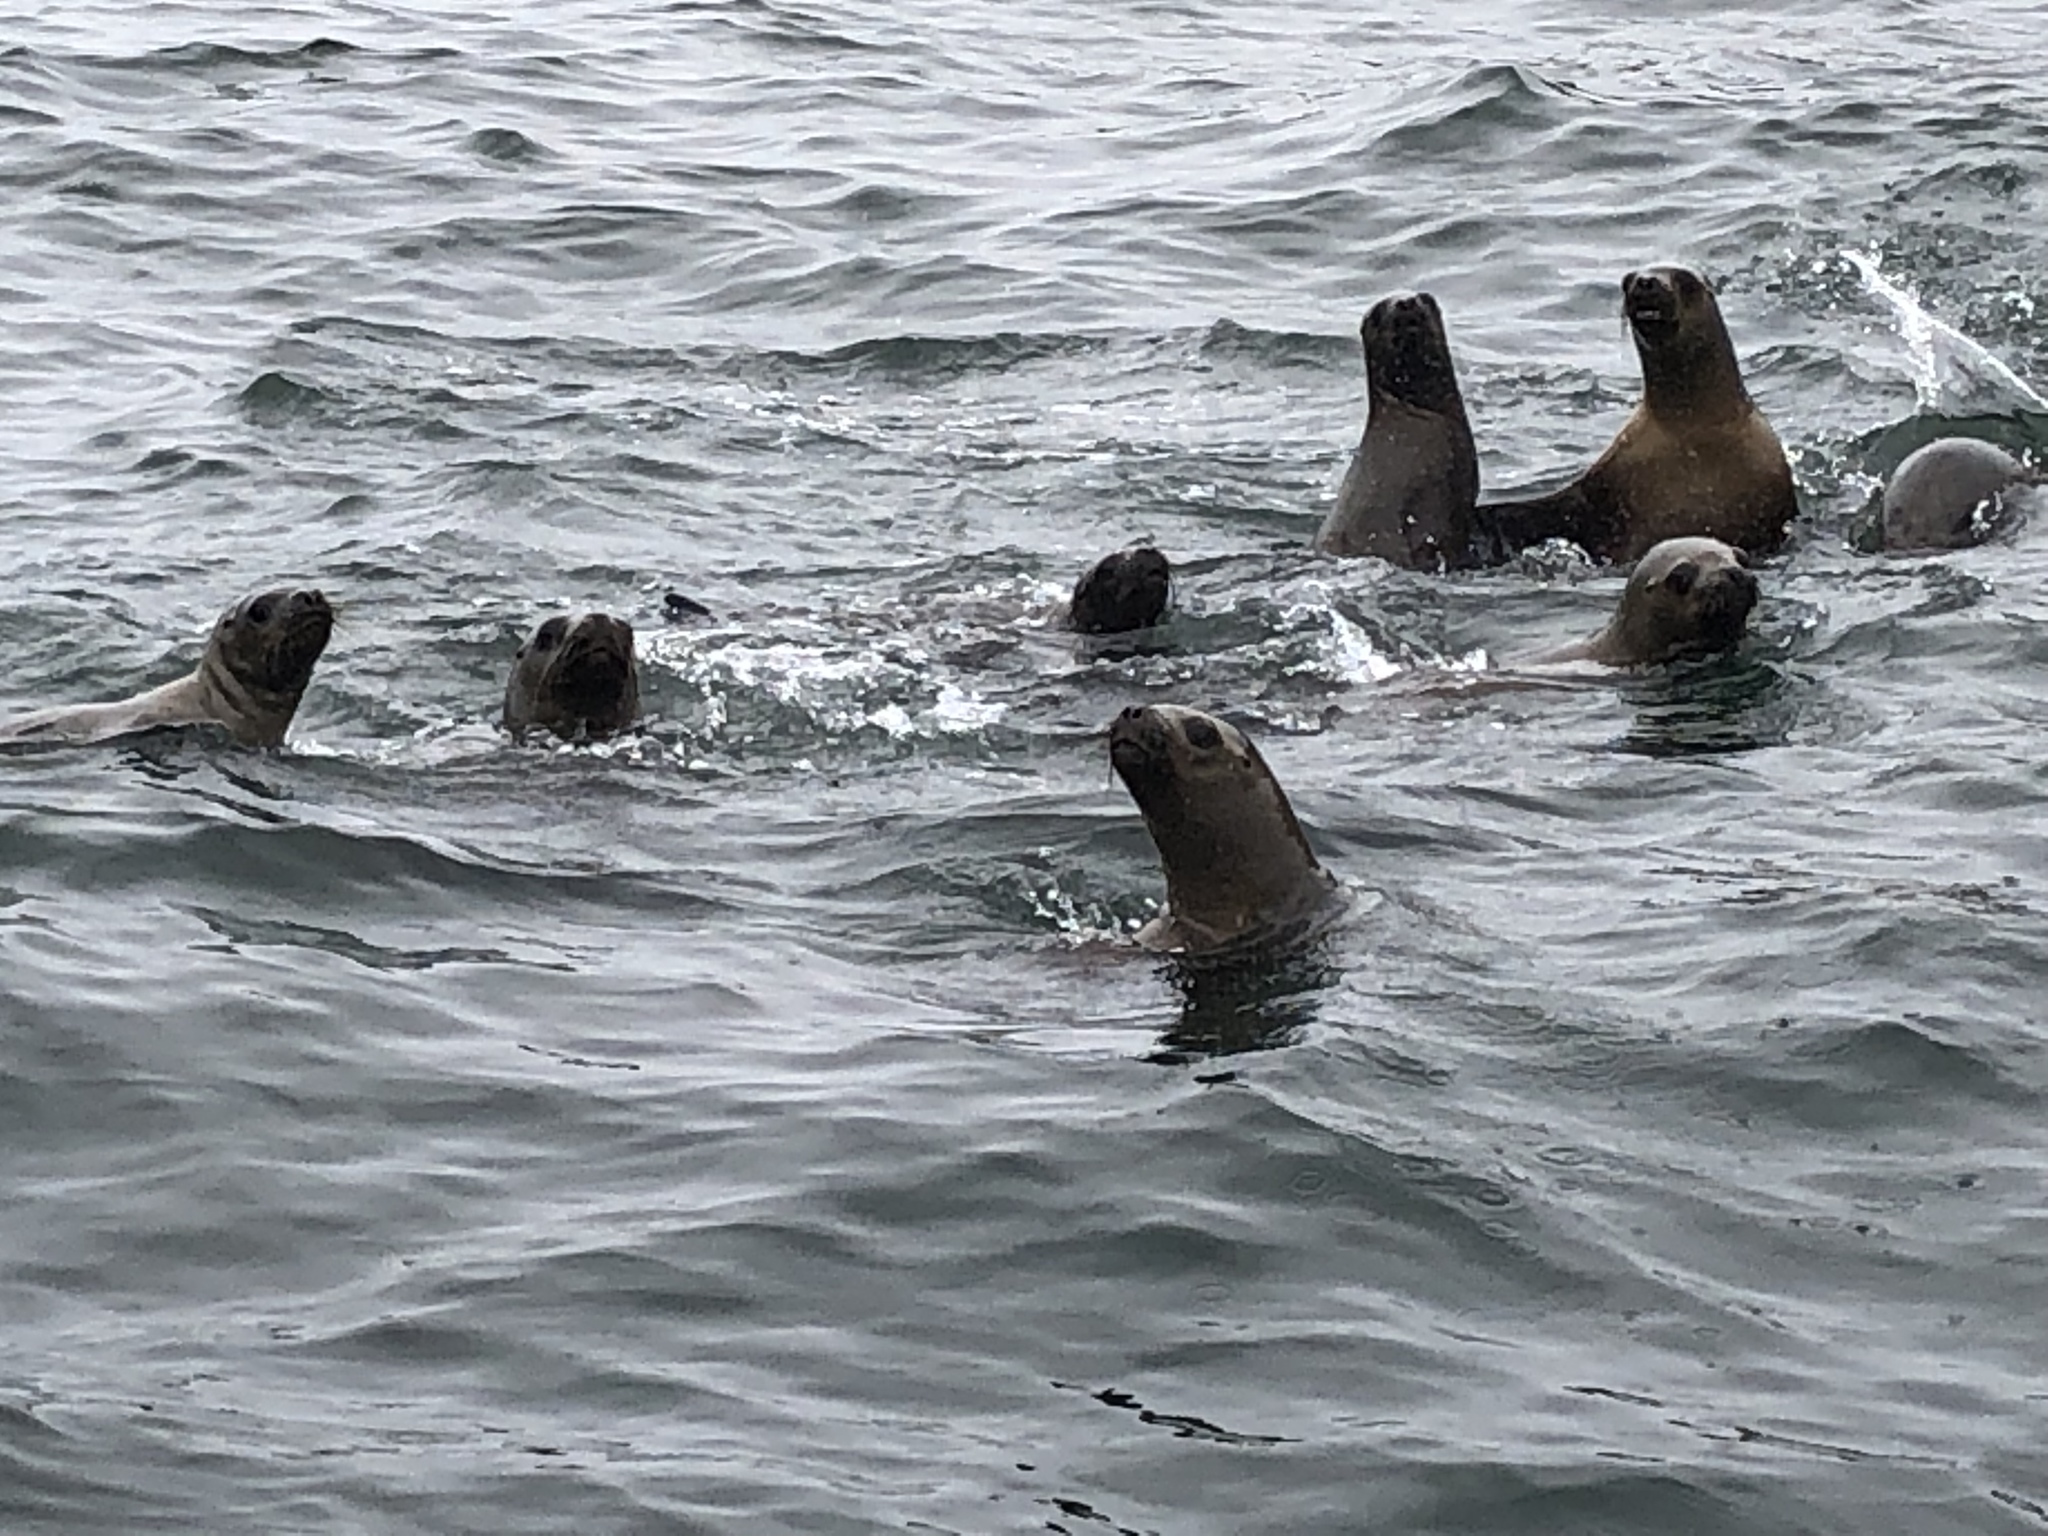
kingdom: Animalia
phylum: Chordata
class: Mammalia
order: Carnivora
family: Otariidae
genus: Otaria
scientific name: Otaria byronia
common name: South american sea lion
